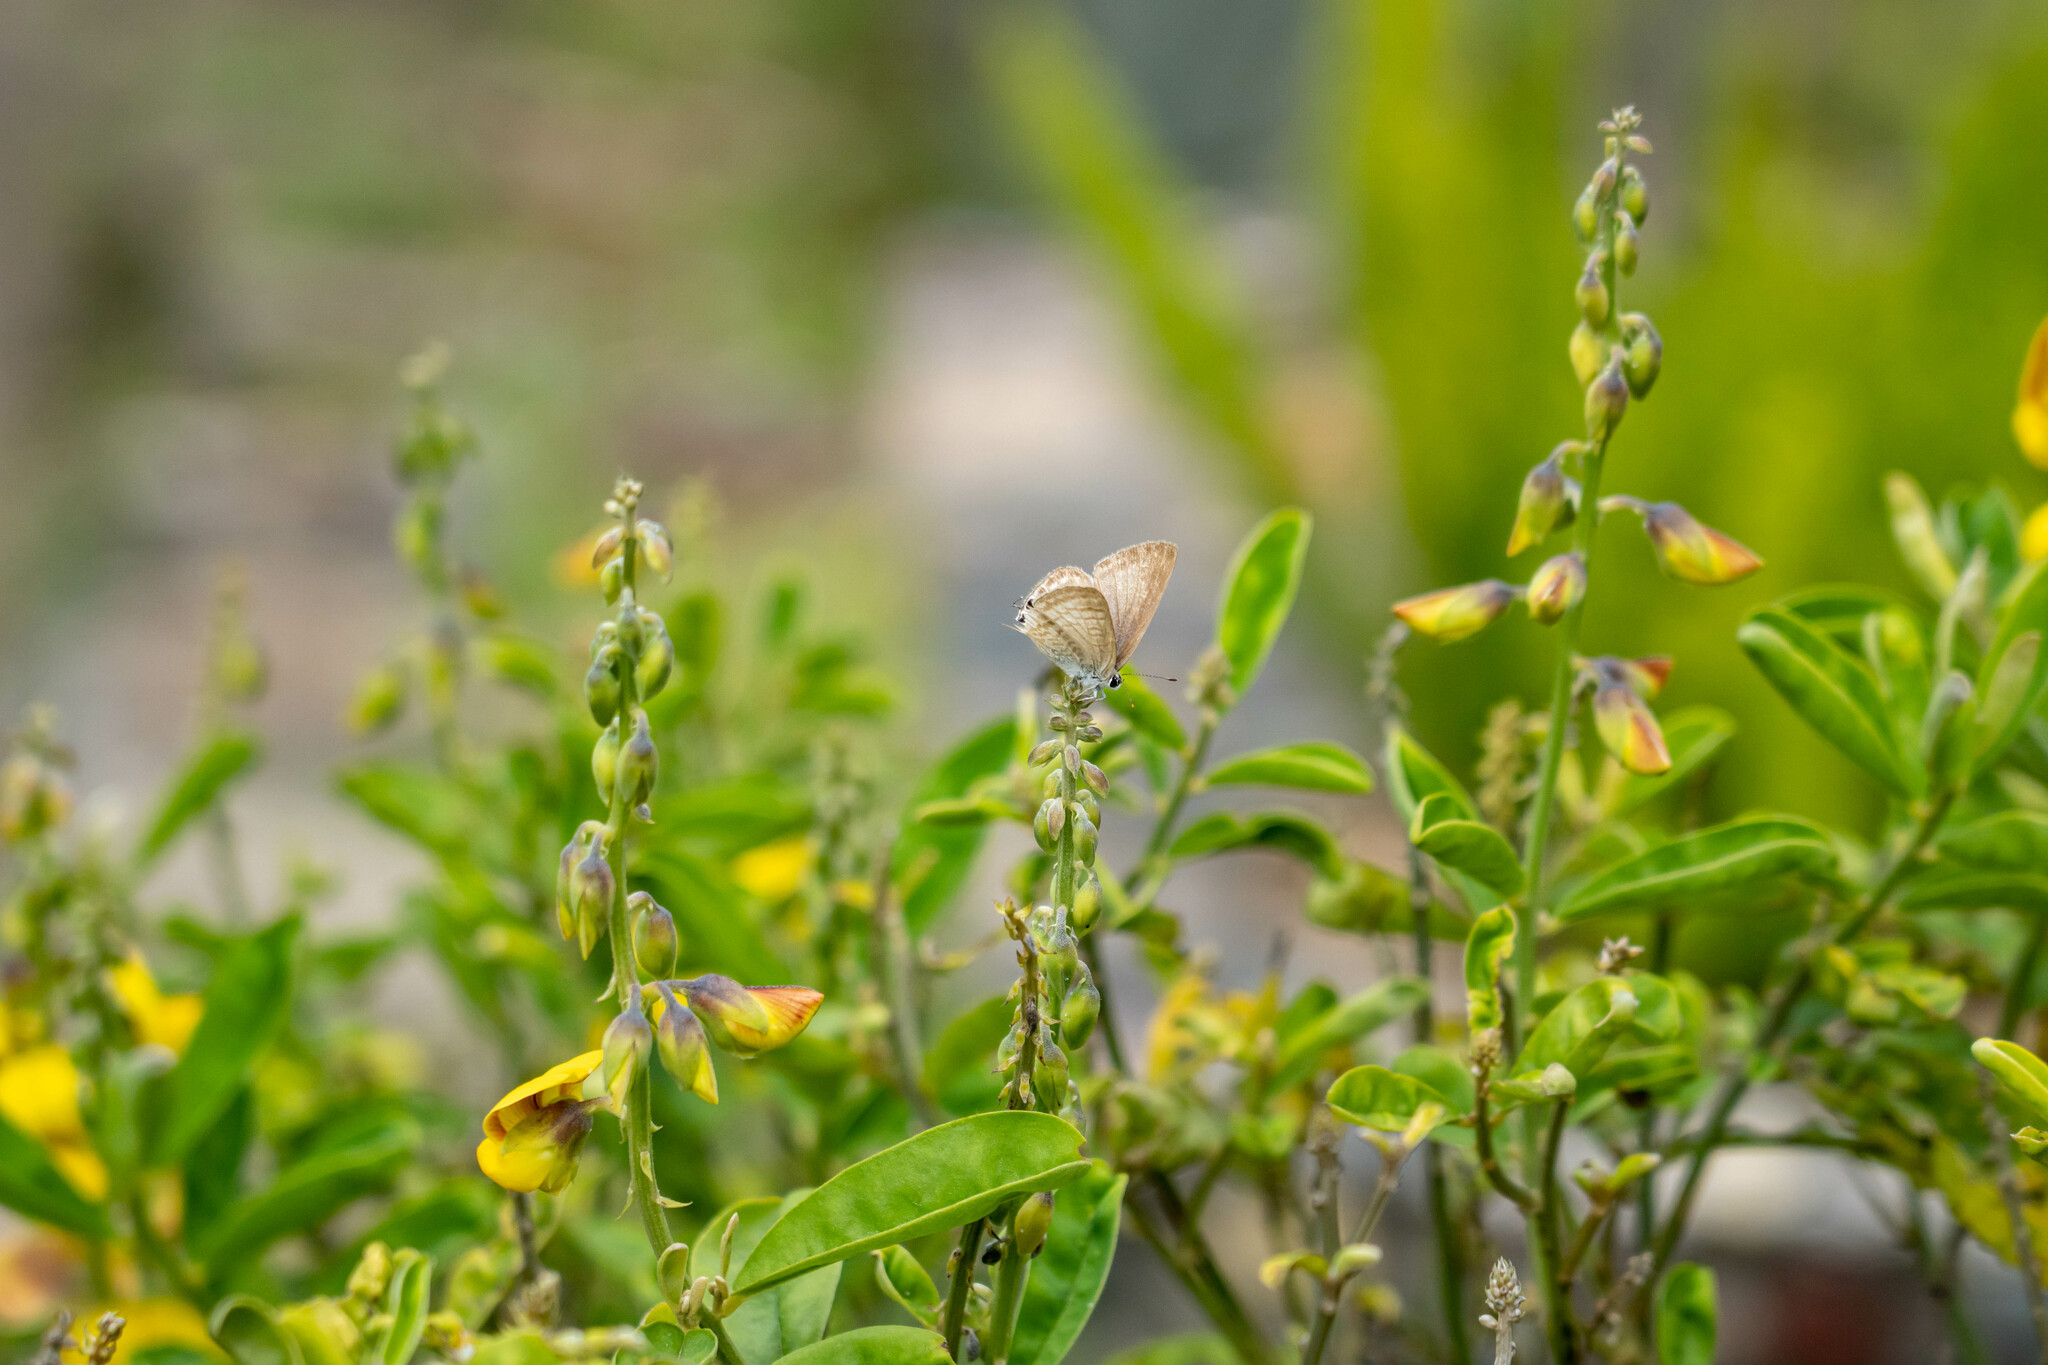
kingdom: Animalia
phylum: Arthropoda
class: Insecta
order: Lepidoptera
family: Lycaenidae
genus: Lampides
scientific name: Lampides boeticus
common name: Long-tailed blue
